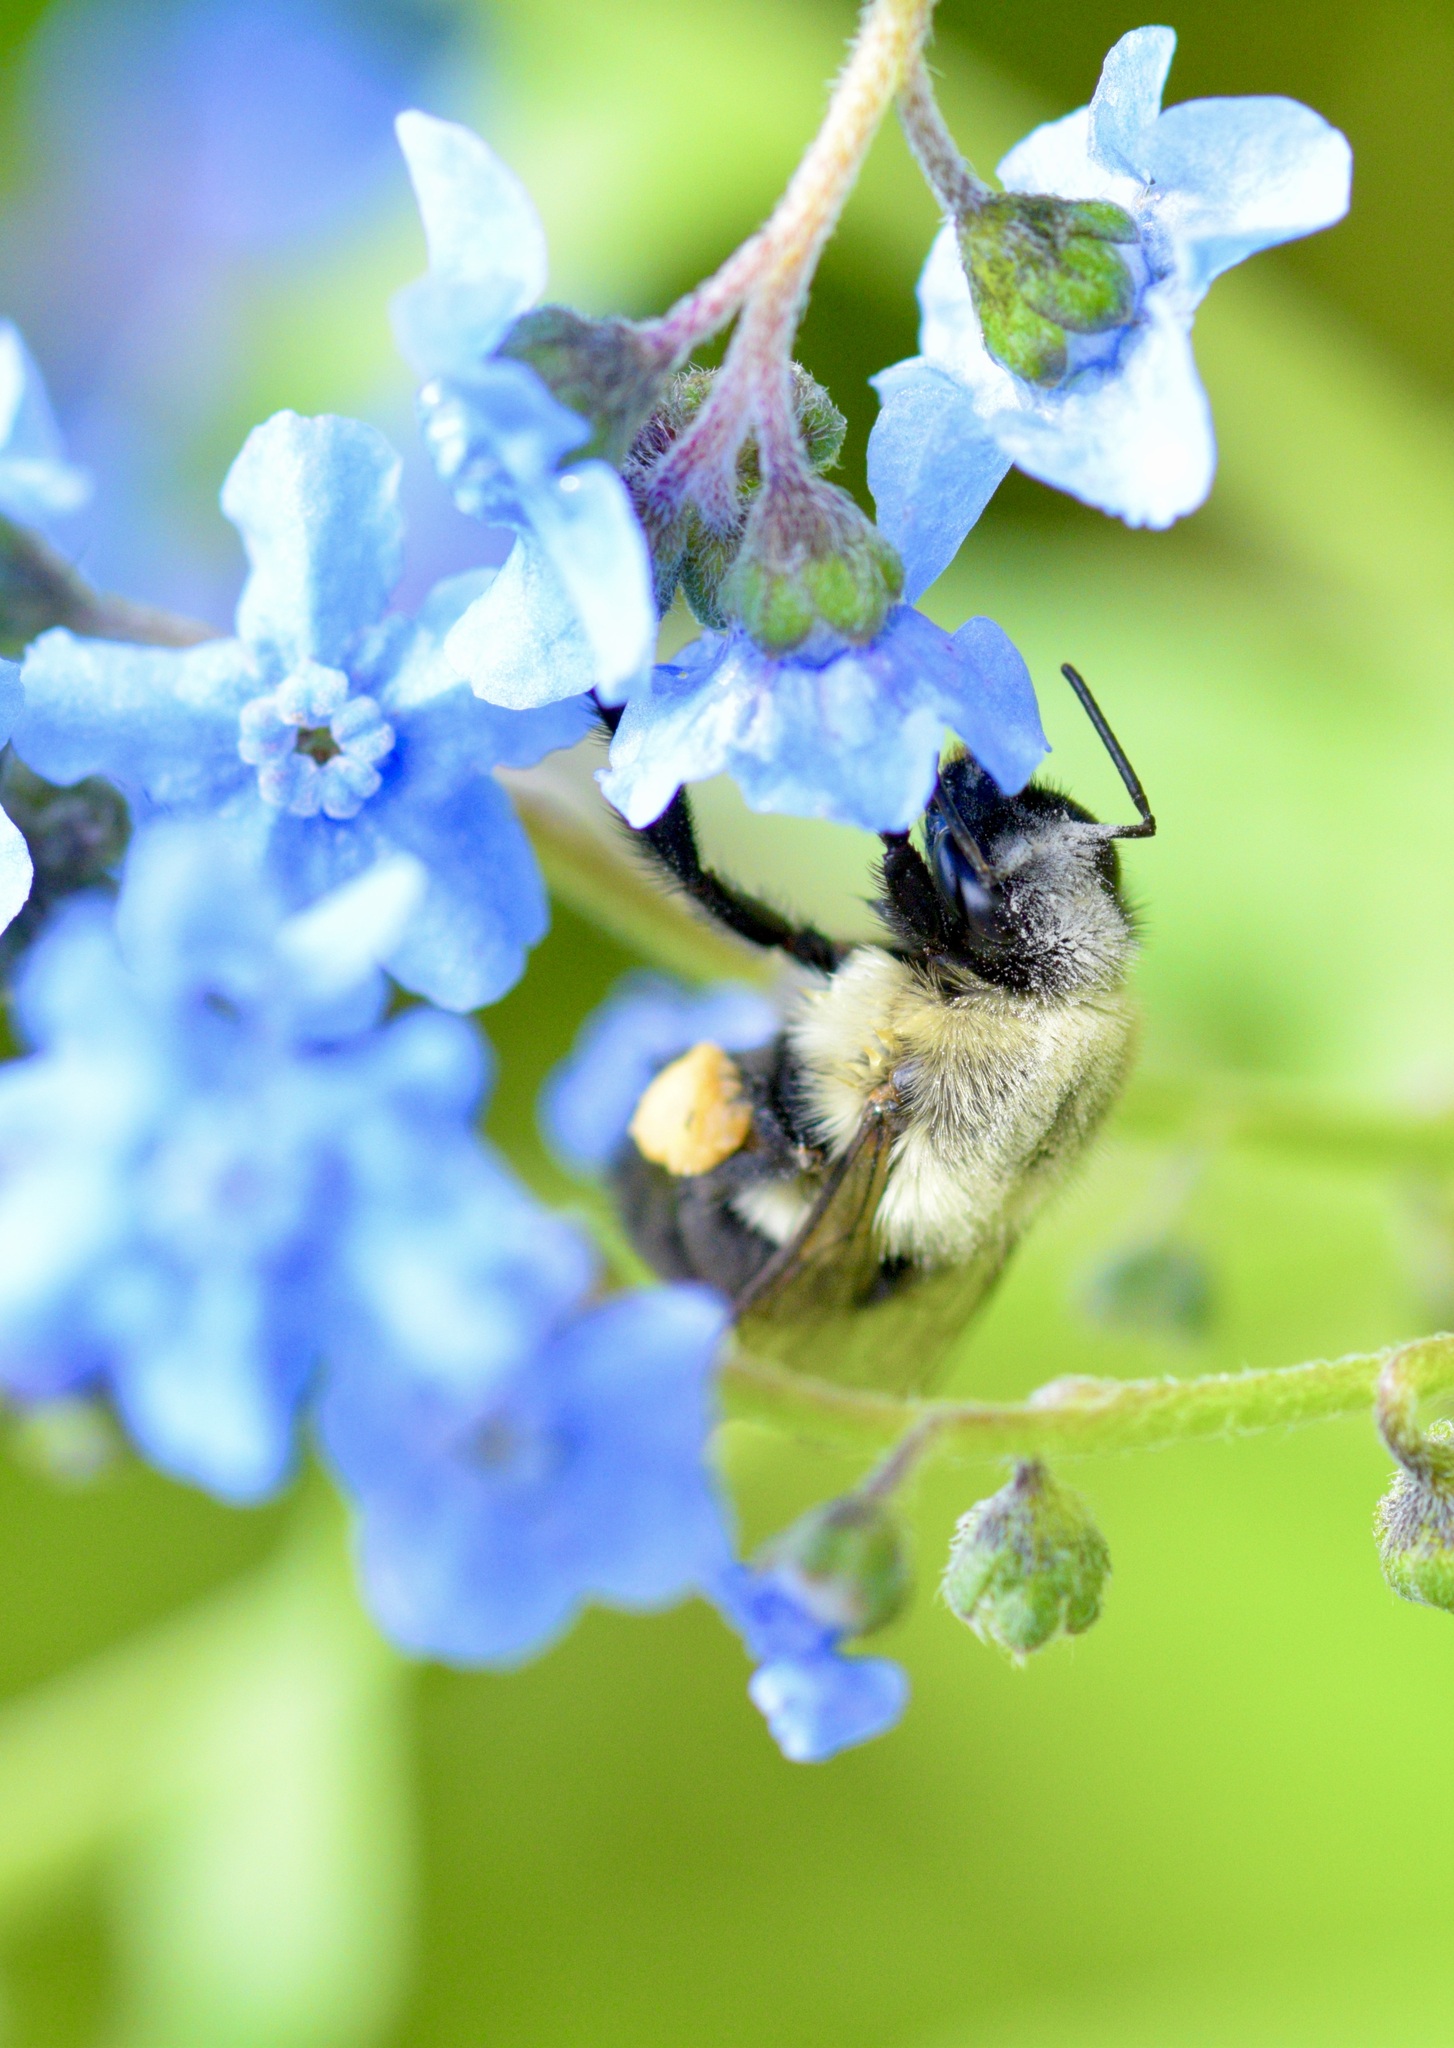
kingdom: Animalia
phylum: Arthropoda
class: Insecta
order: Hymenoptera
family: Apidae
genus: Bombus
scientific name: Bombus impatiens
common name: Common eastern bumble bee
